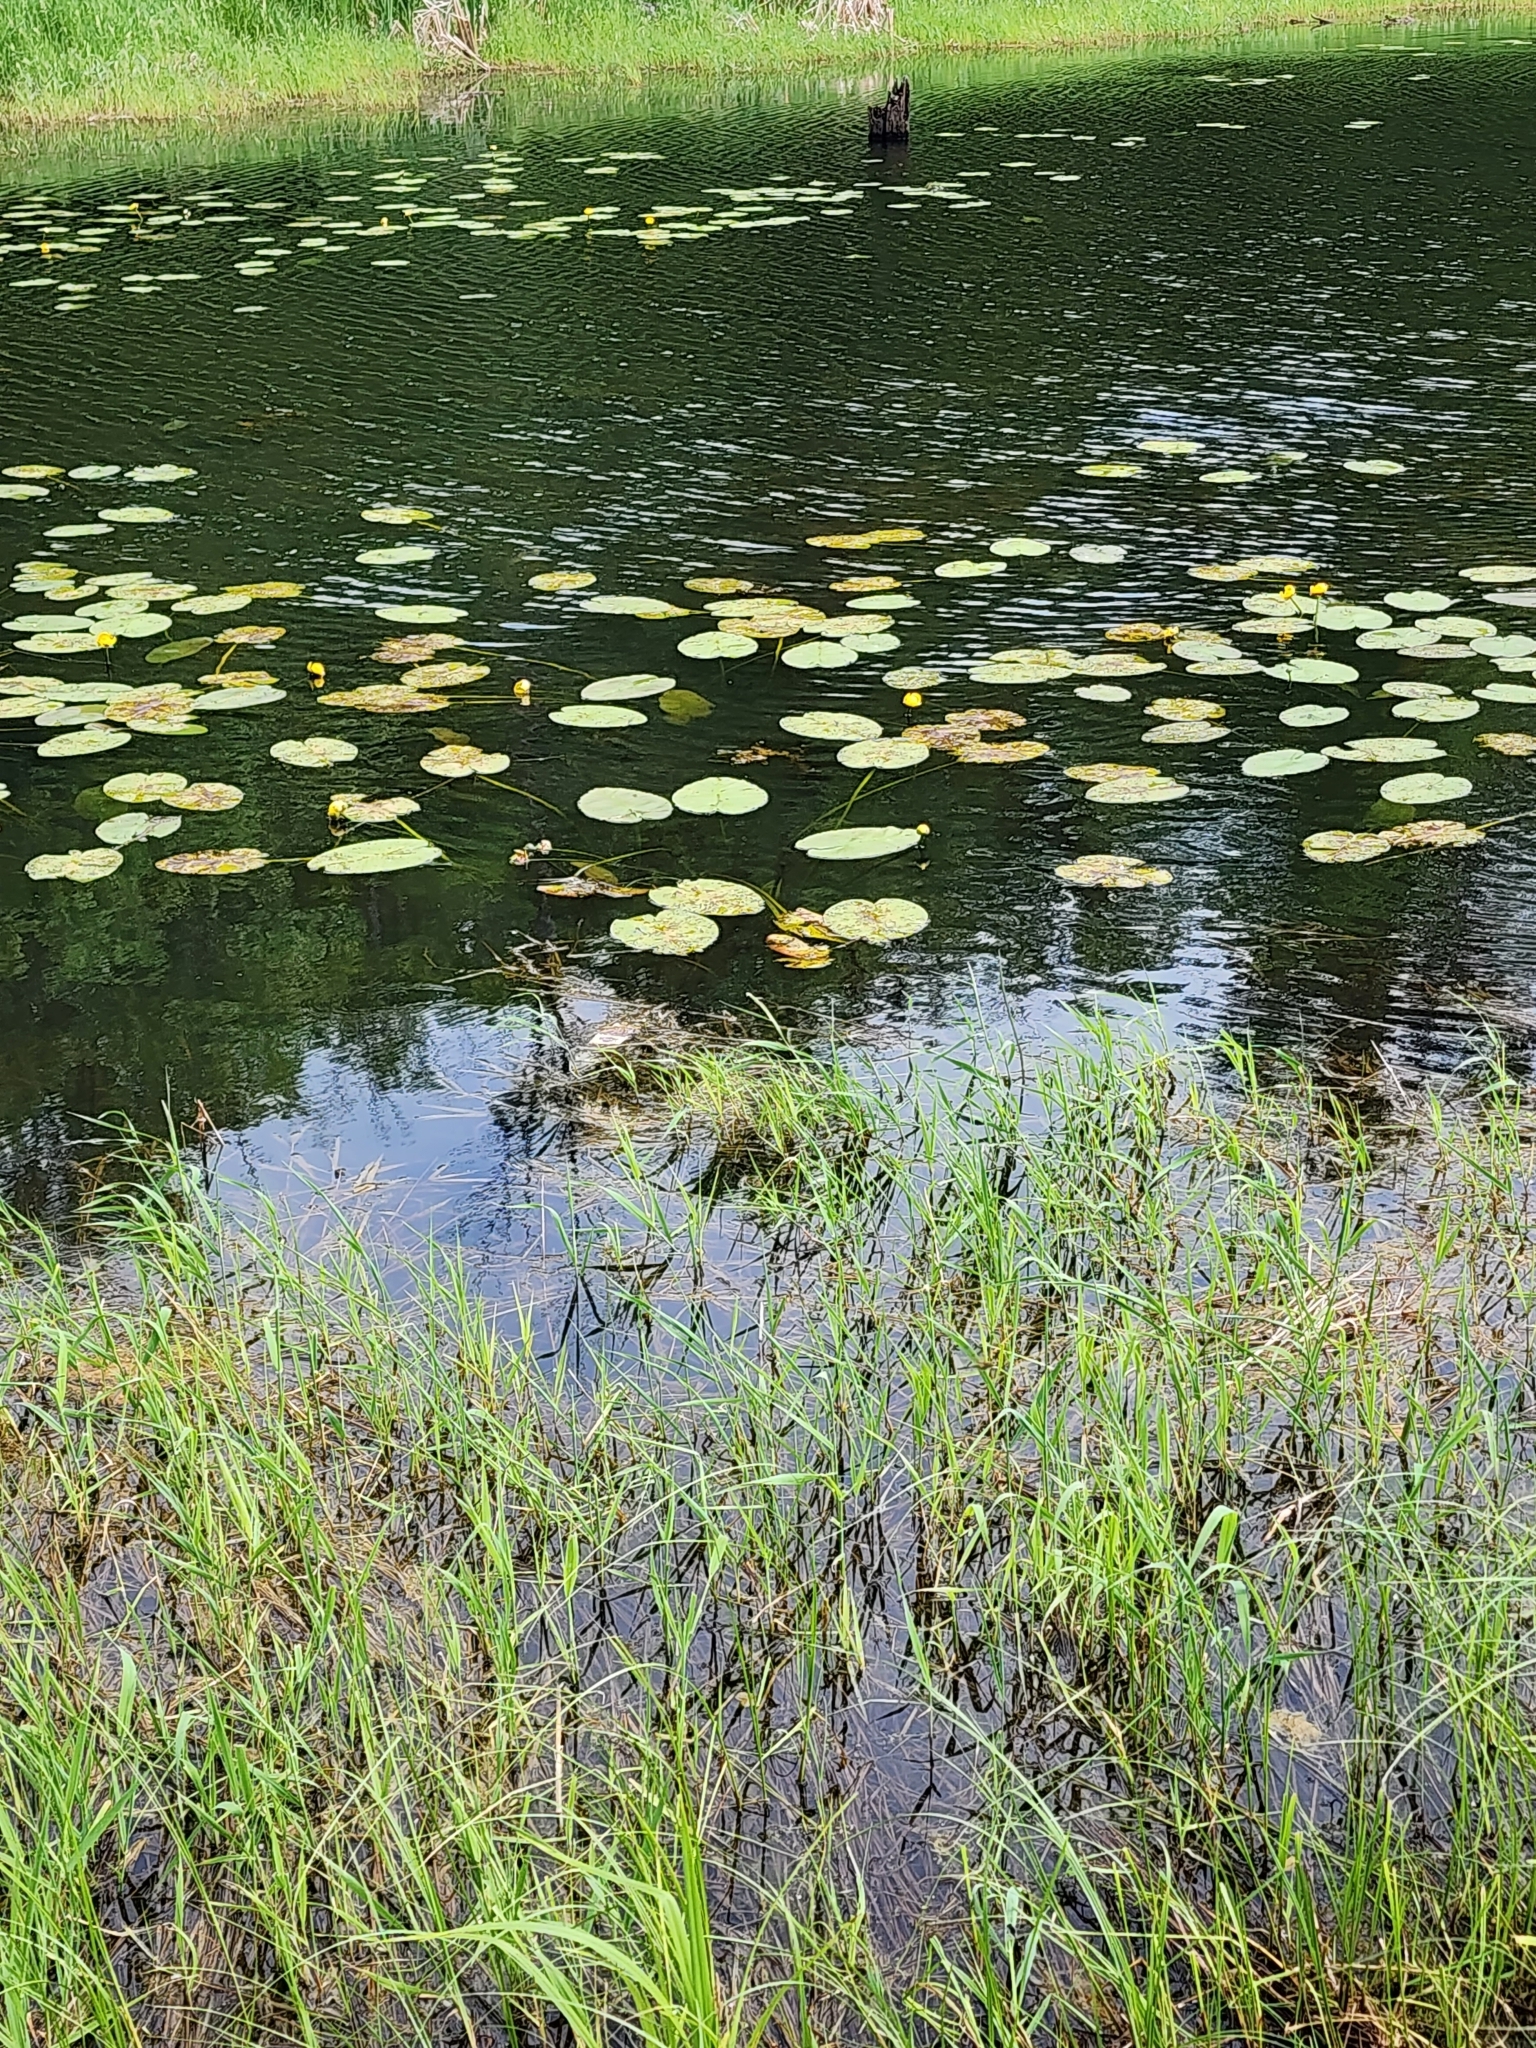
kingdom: Plantae
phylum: Tracheophyta
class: Magnoliopsida
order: Nymphaeales
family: Nymphaeaceae
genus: Nuphar
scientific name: Nuphar variegata
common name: Beaver-root
